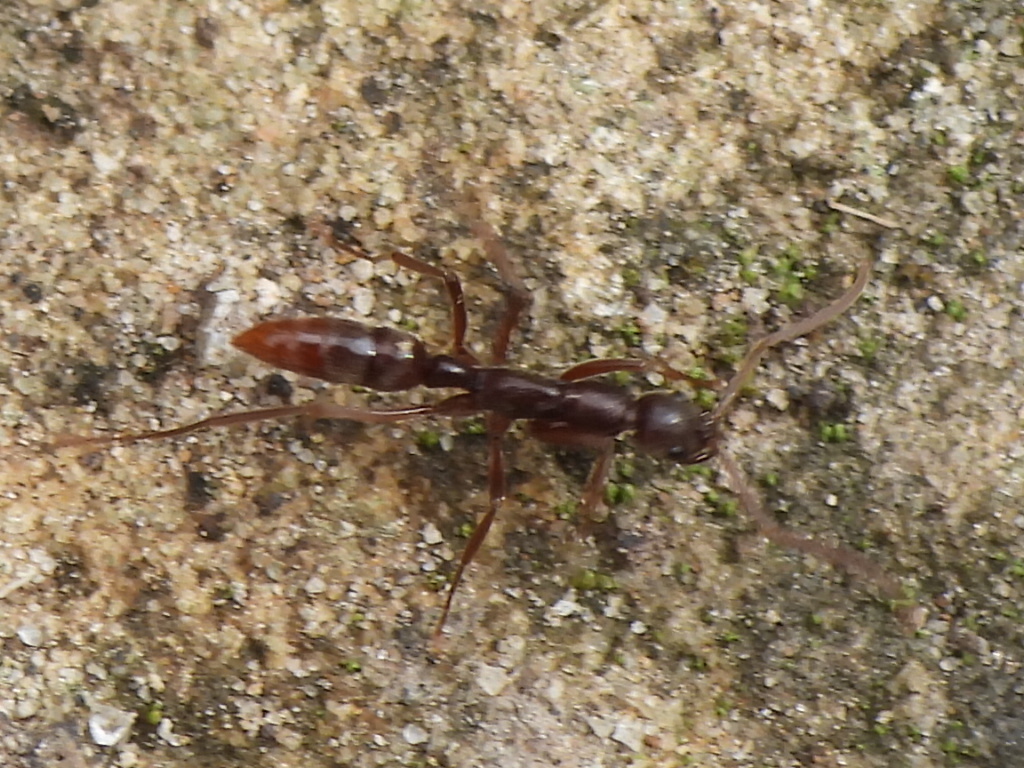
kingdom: Animalia
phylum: Arthropoda
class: Insecta
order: Hymenoptera
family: Formicidae
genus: Leptogenys
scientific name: Leptogenys elongata
